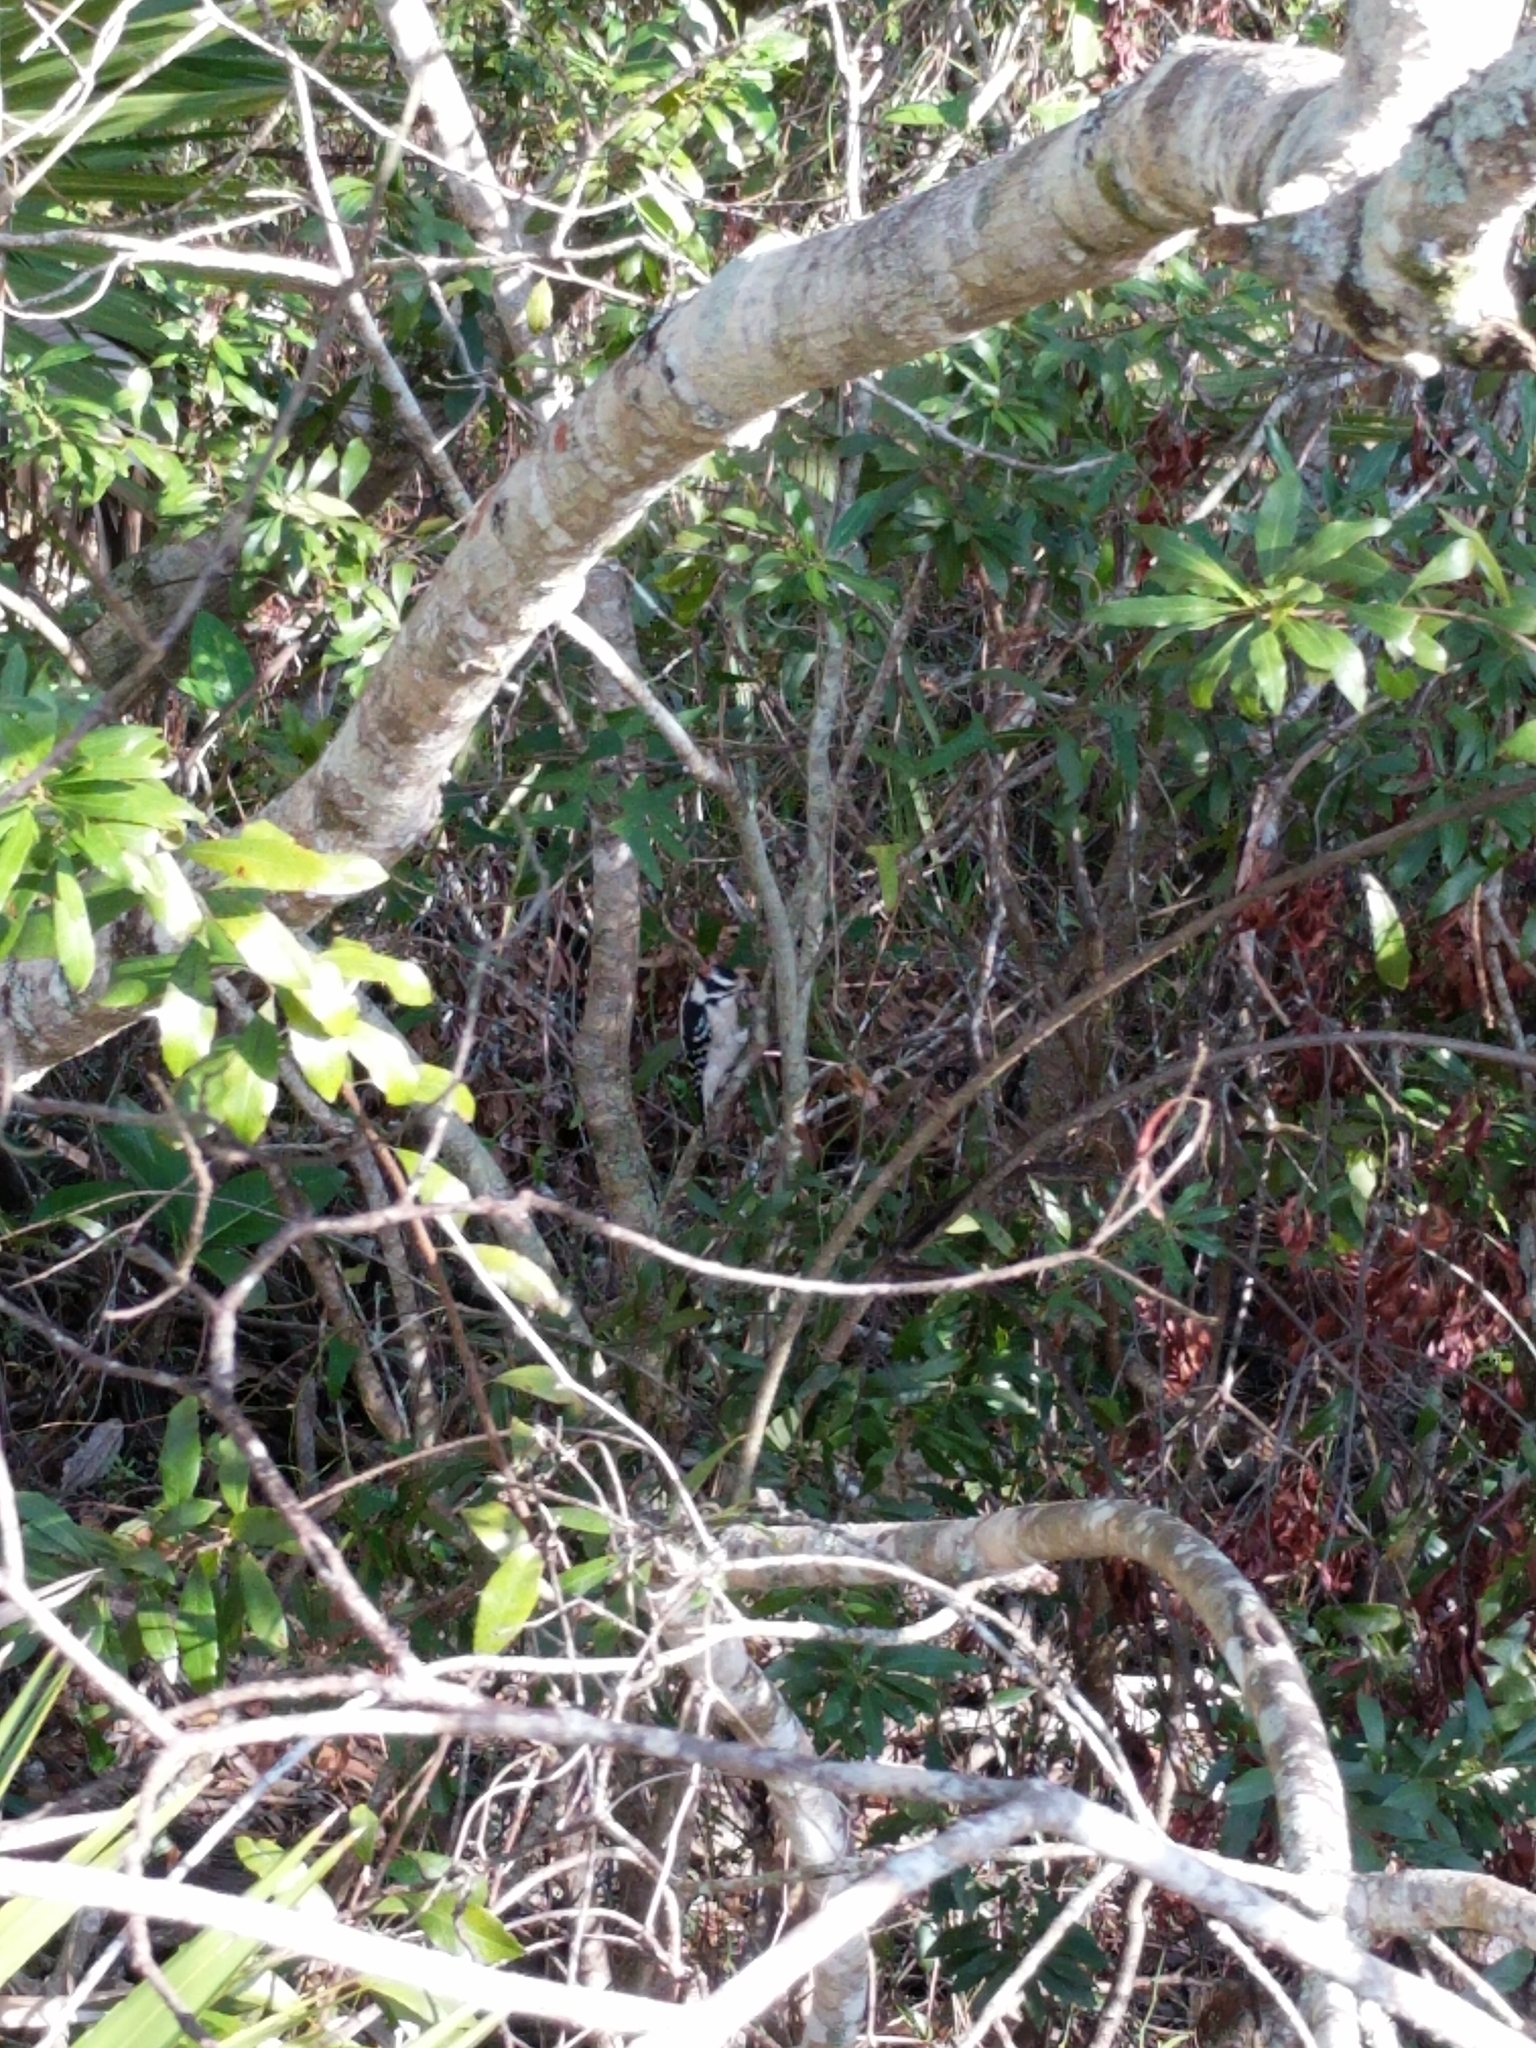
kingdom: Animalia
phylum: Chordata
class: Aves
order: Piciformes
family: Picidae
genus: Dryobates
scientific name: Dryobates pubescens
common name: Downy woodpecker
